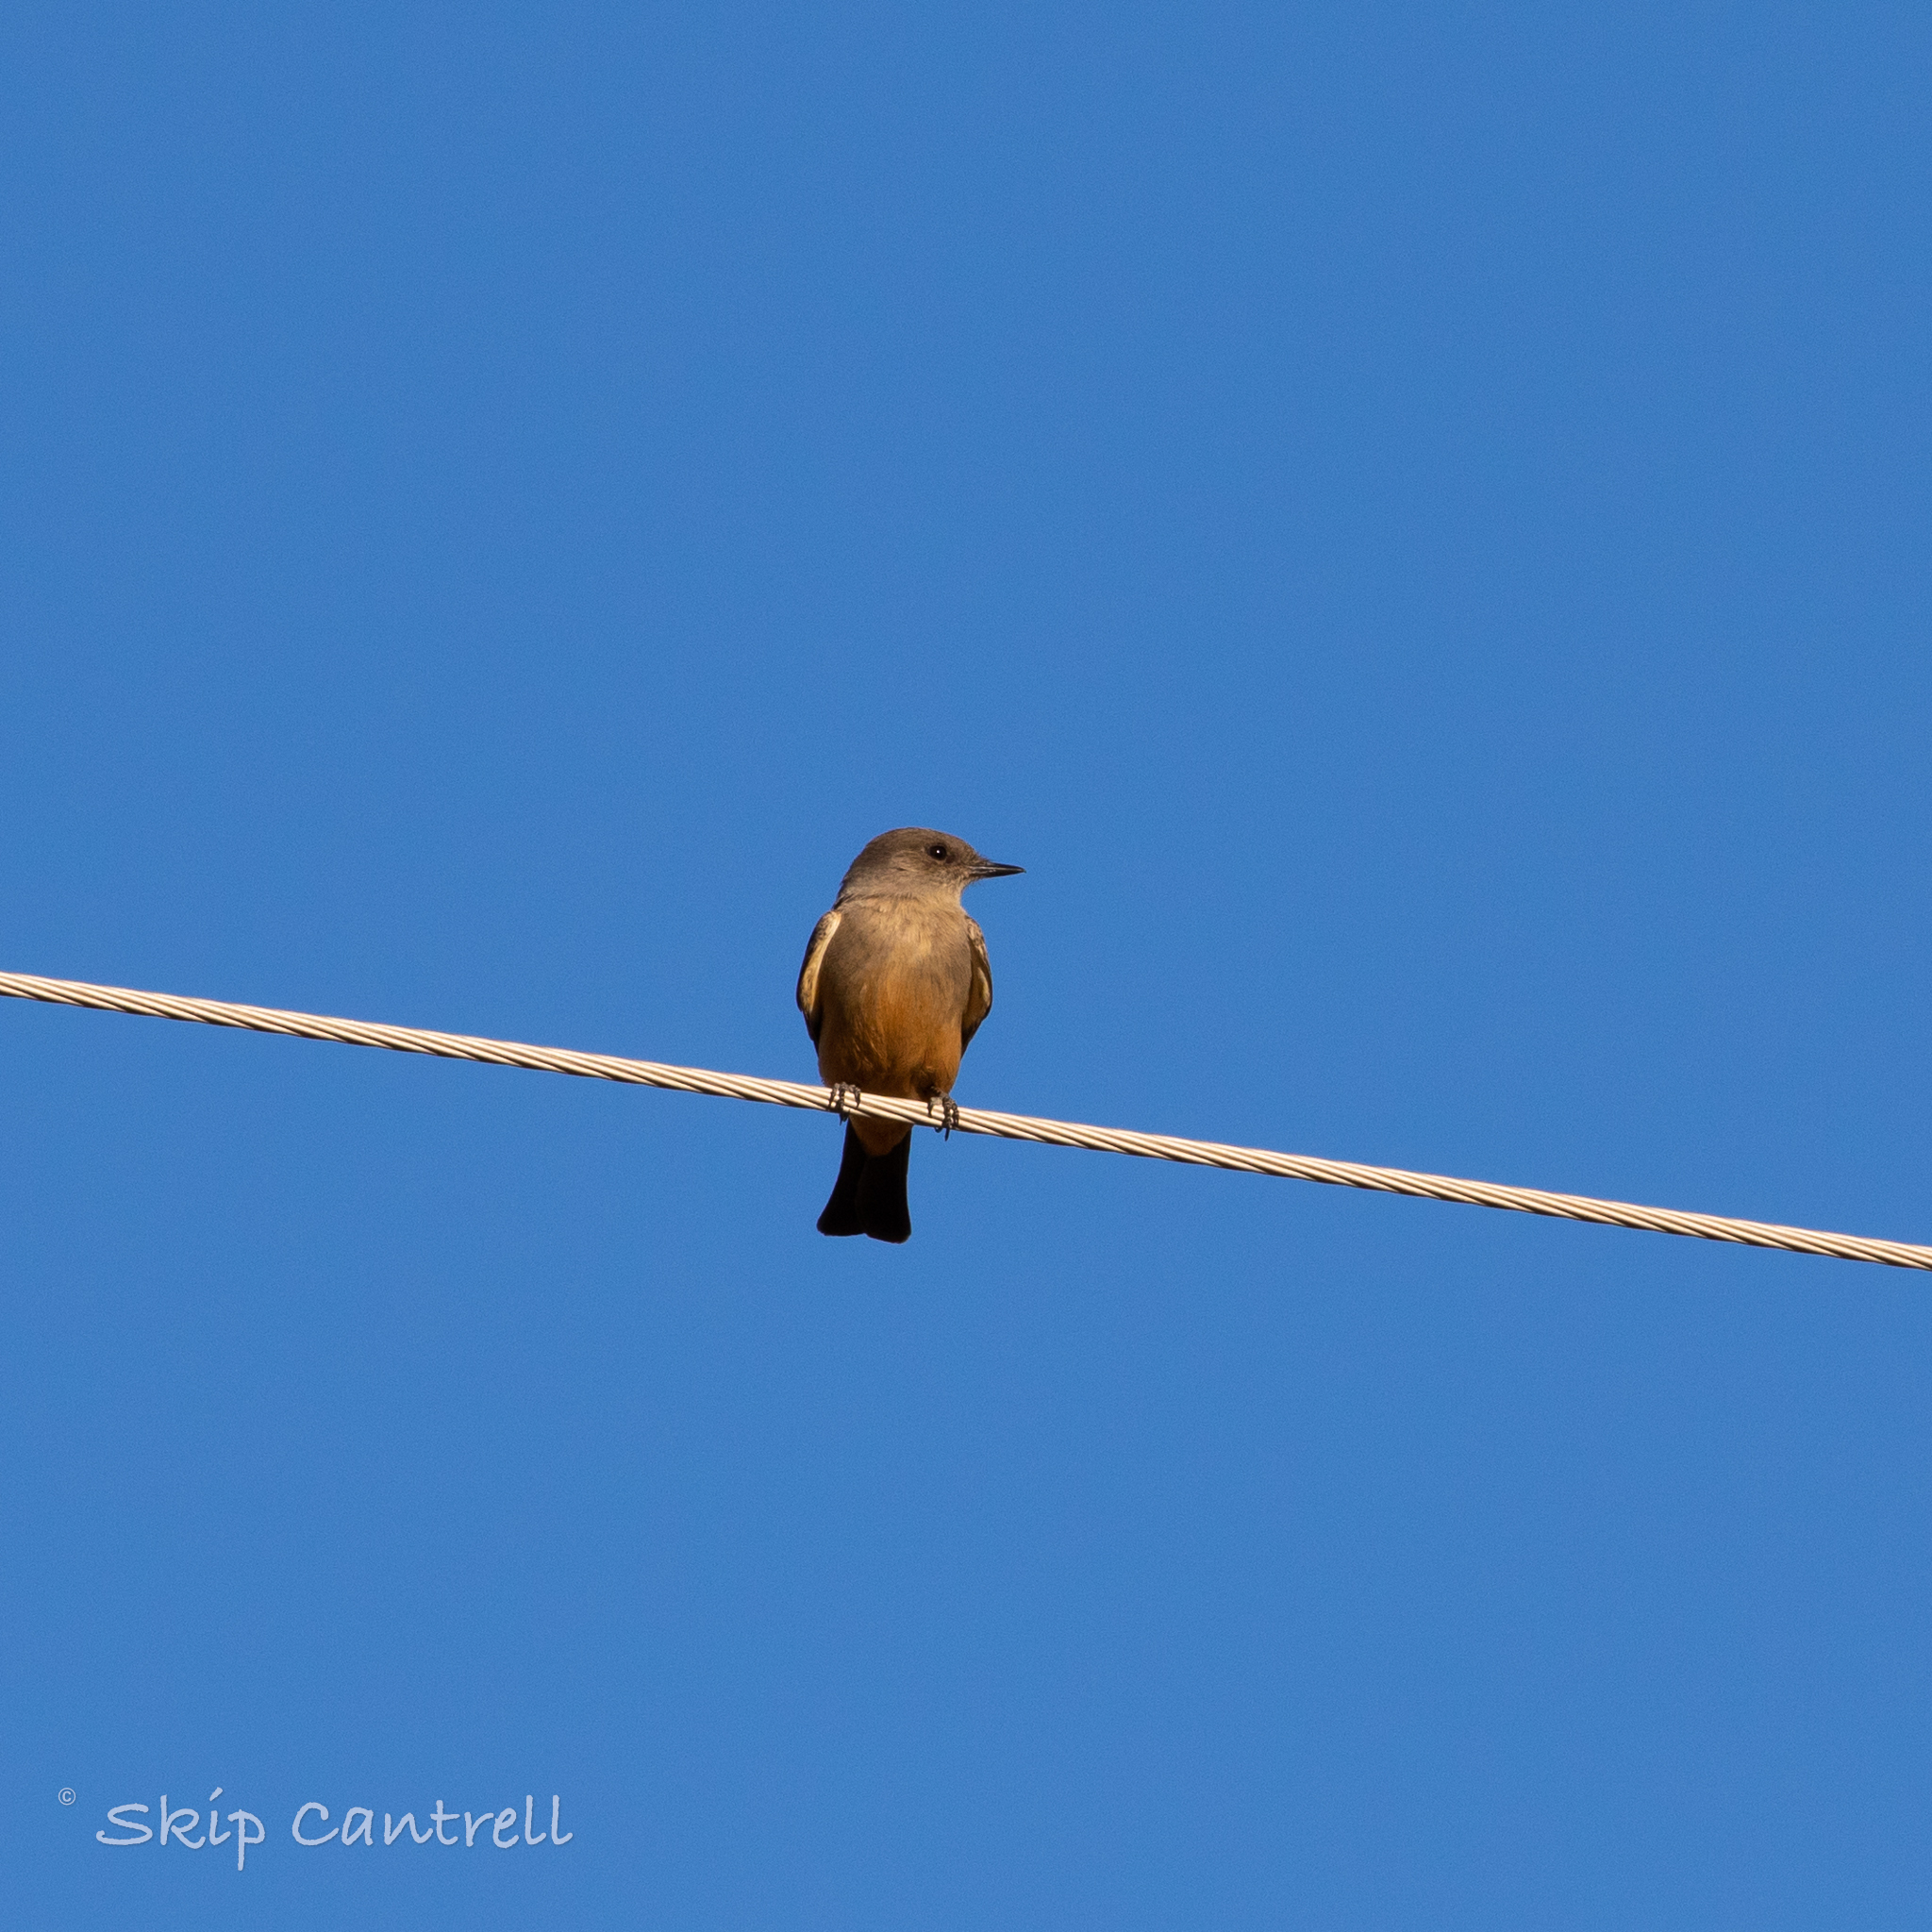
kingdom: Animalia
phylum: Chordata
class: Aves
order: Passeriformes
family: Tyrannidae
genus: Sayornis
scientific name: Sayornis saya
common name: Say's phoebe
